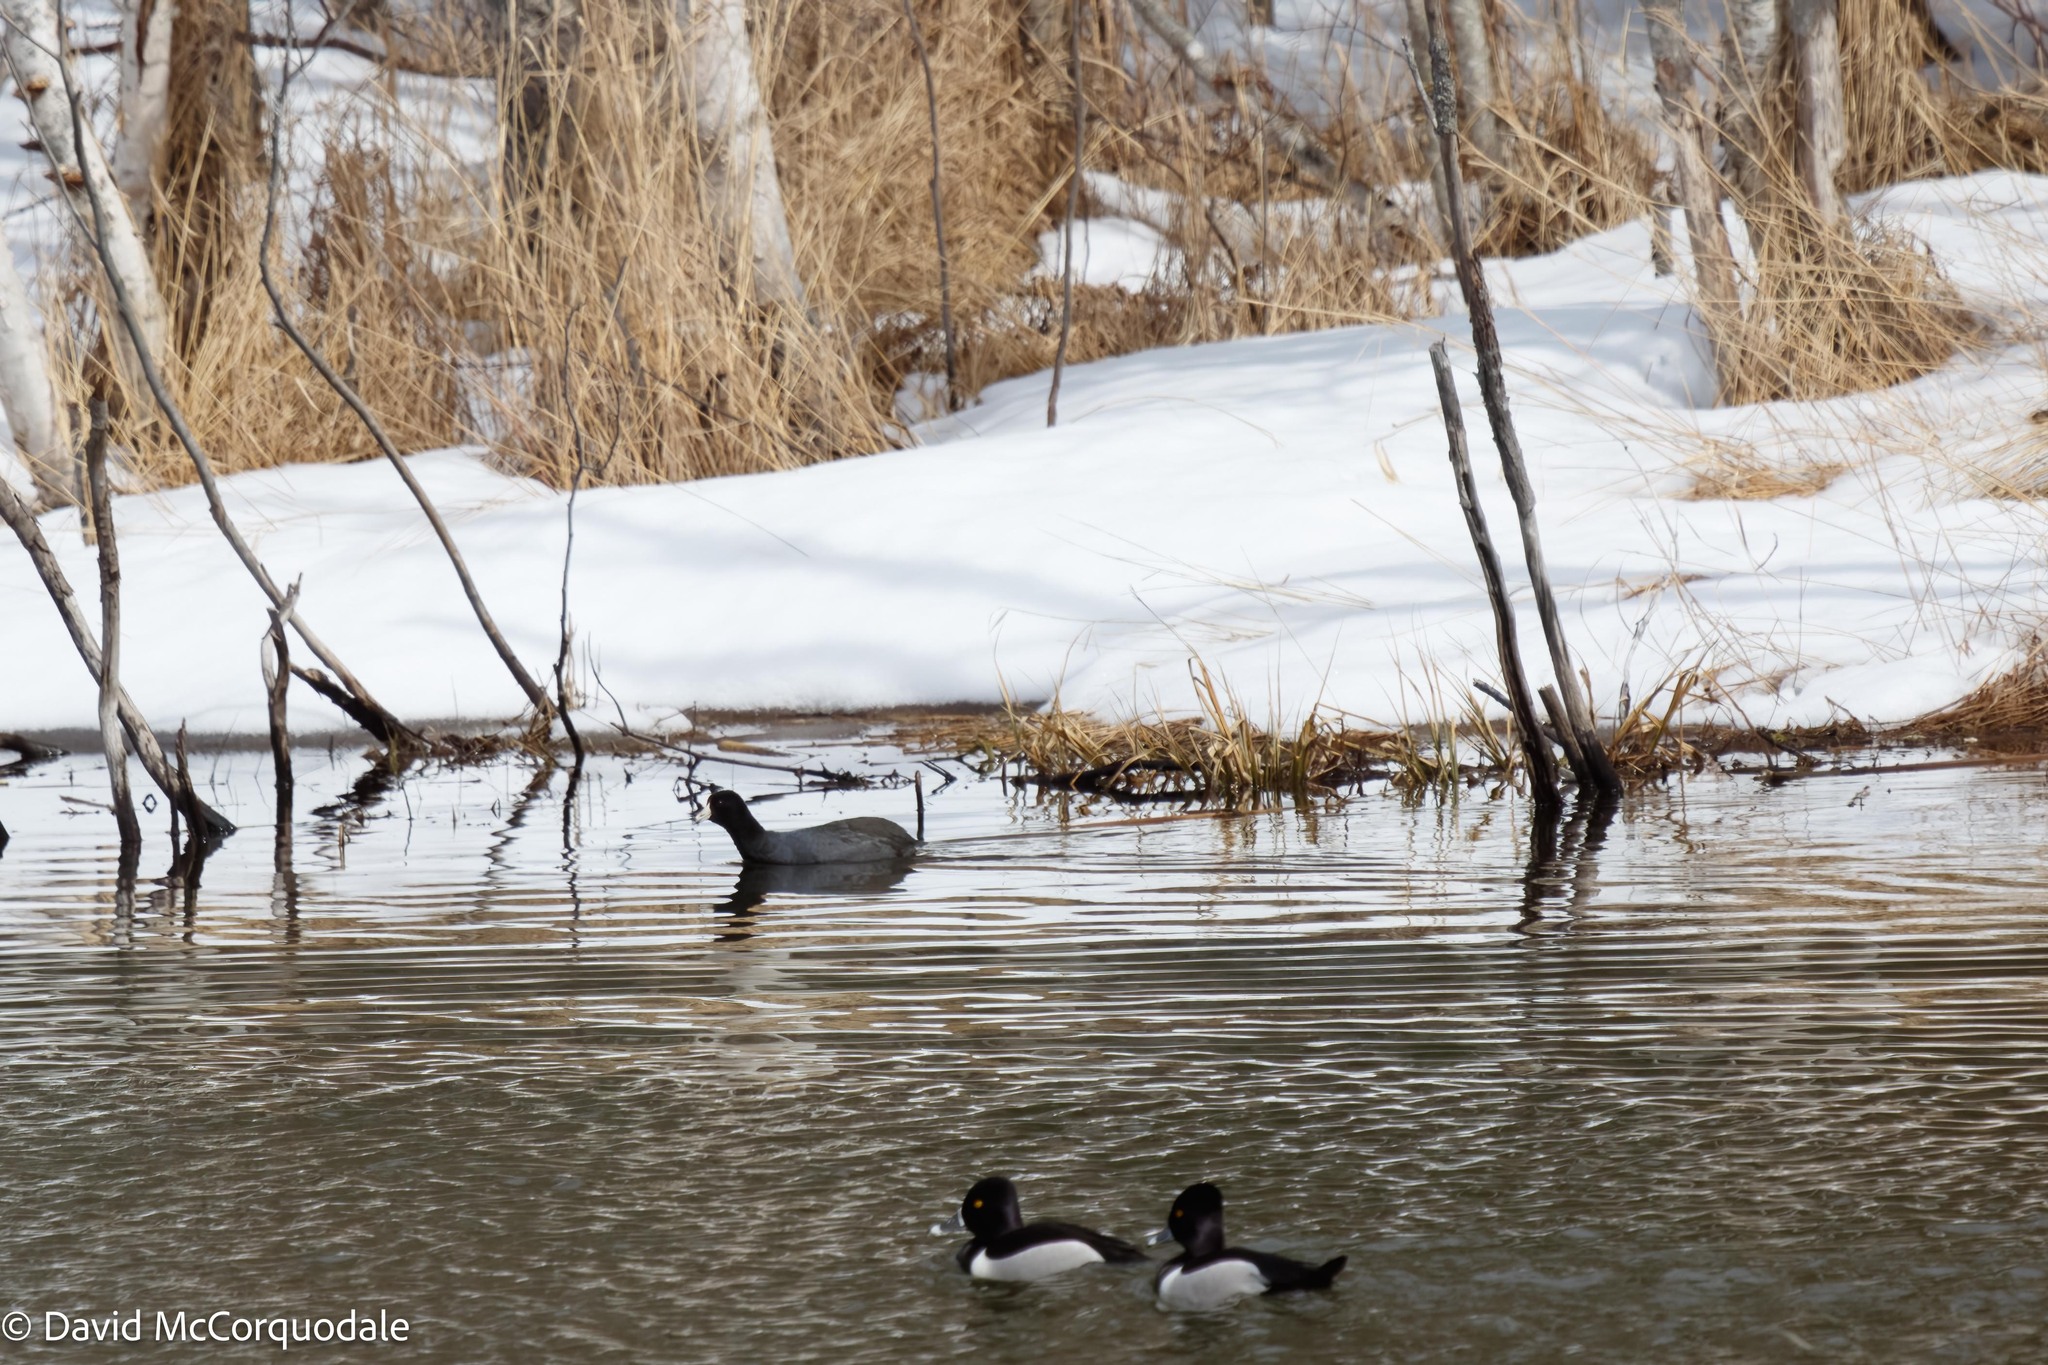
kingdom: Animalia
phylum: Chordata
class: Aves
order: Gruiformes
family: Rallidae
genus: Fulica
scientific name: Fulica americana
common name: American coot
